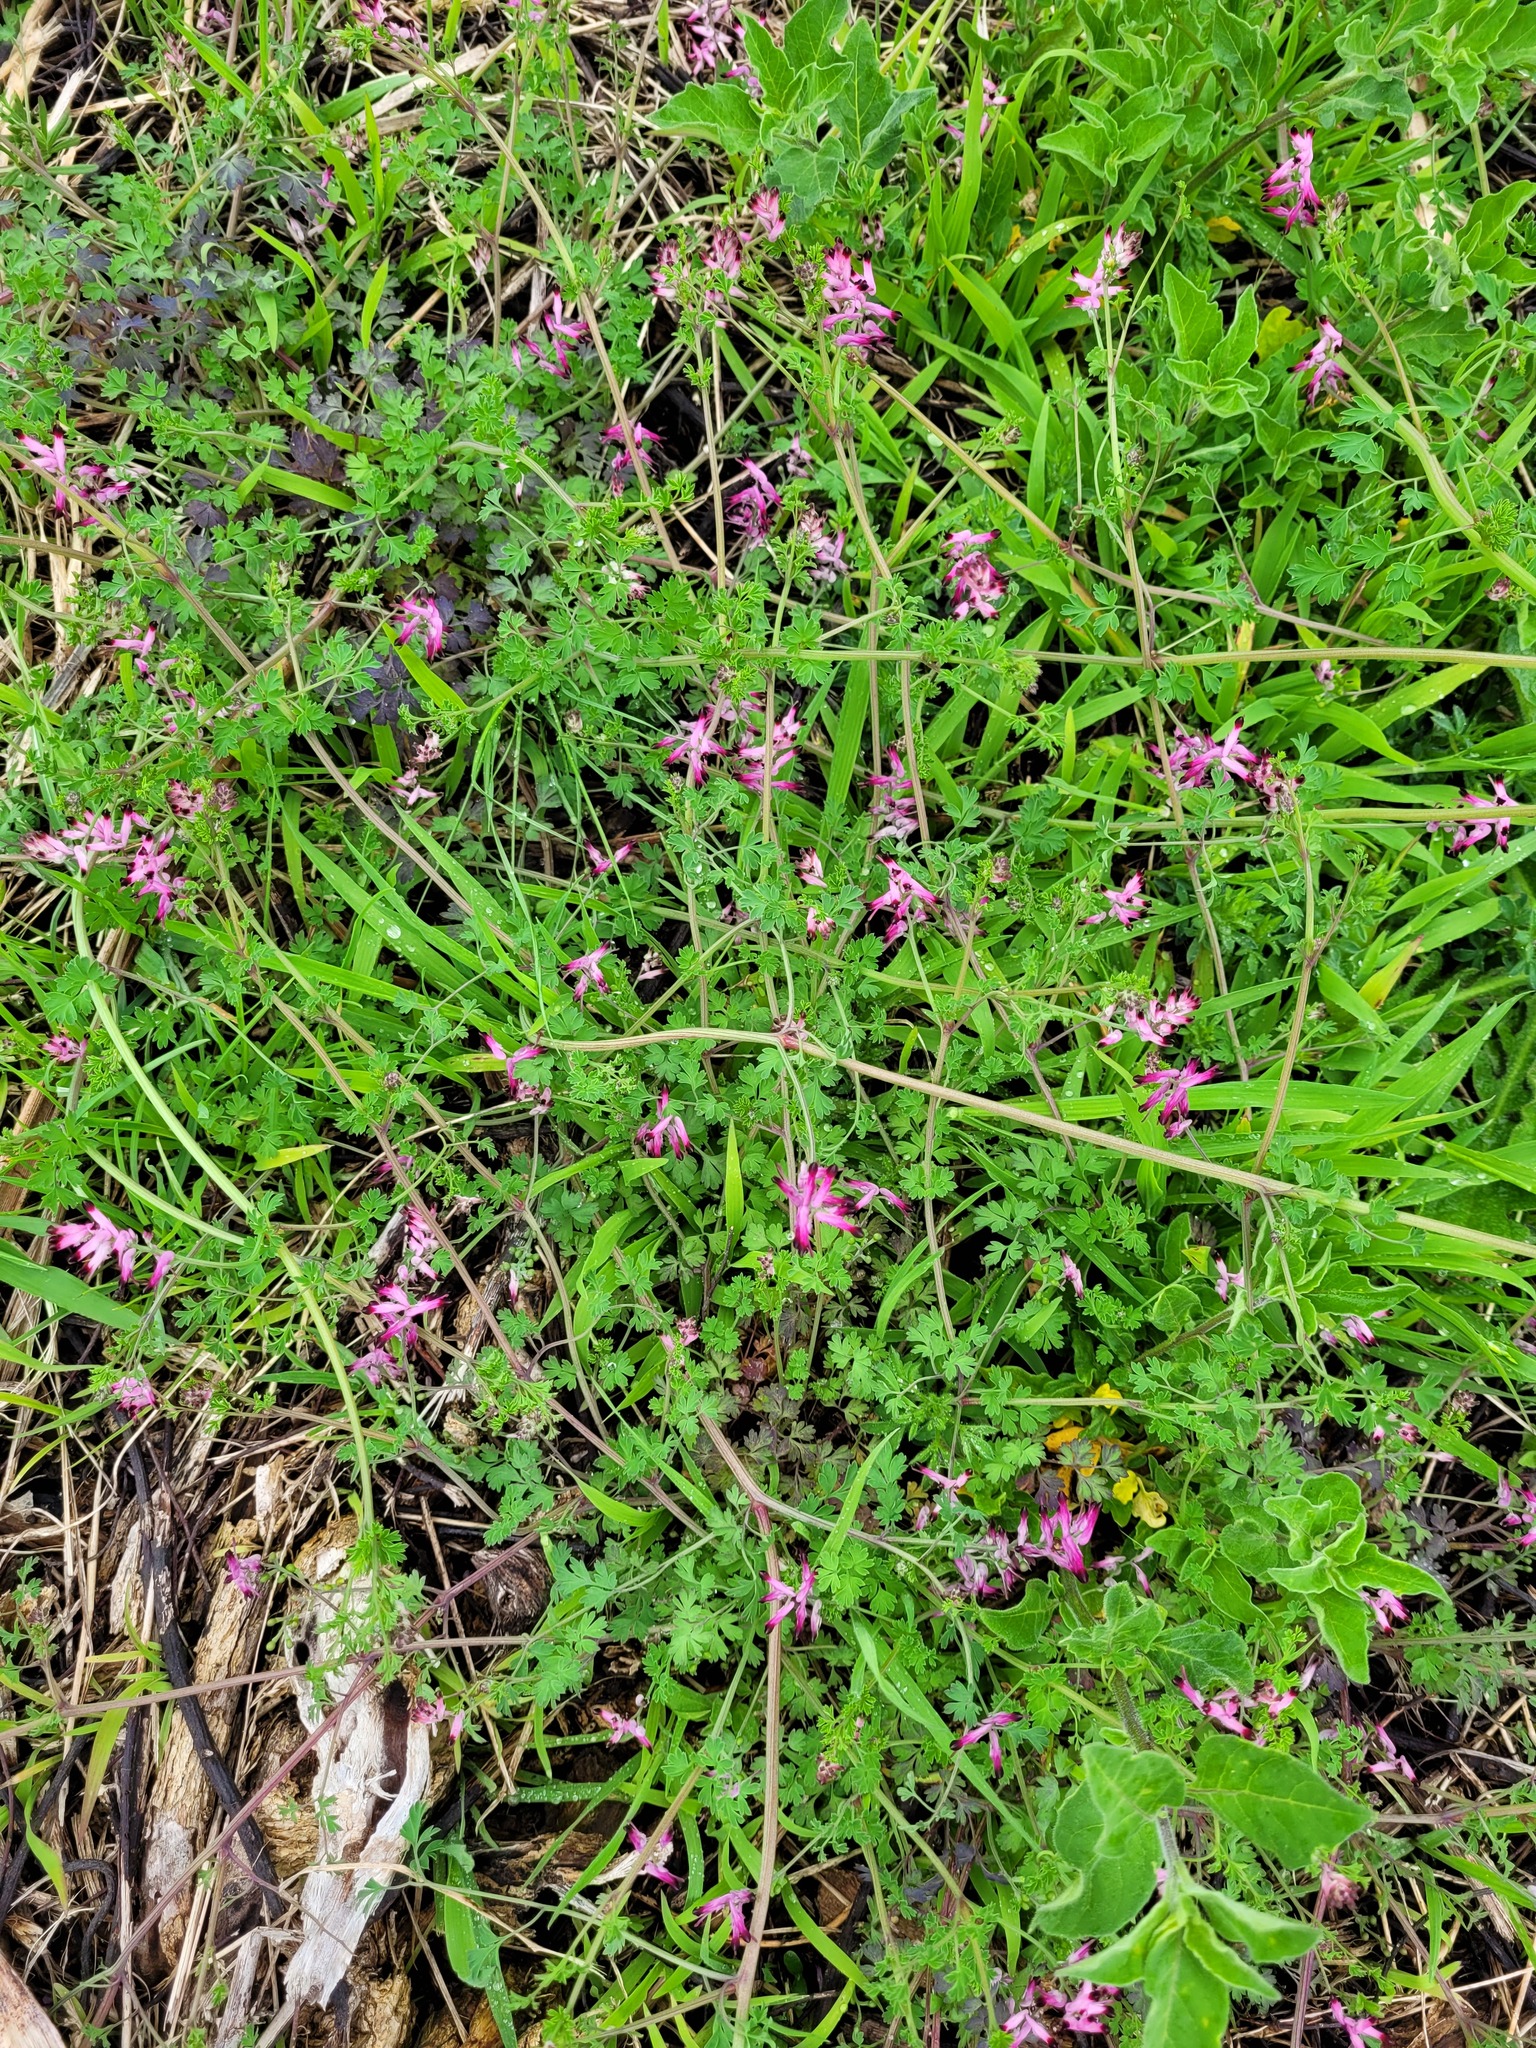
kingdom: Plantae
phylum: Tracheophyta
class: Magnoliopsida
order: Ranunculales
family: Papaveraceae
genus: Fumaria
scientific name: Fumaria muralis
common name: Common ramping-fumitory
